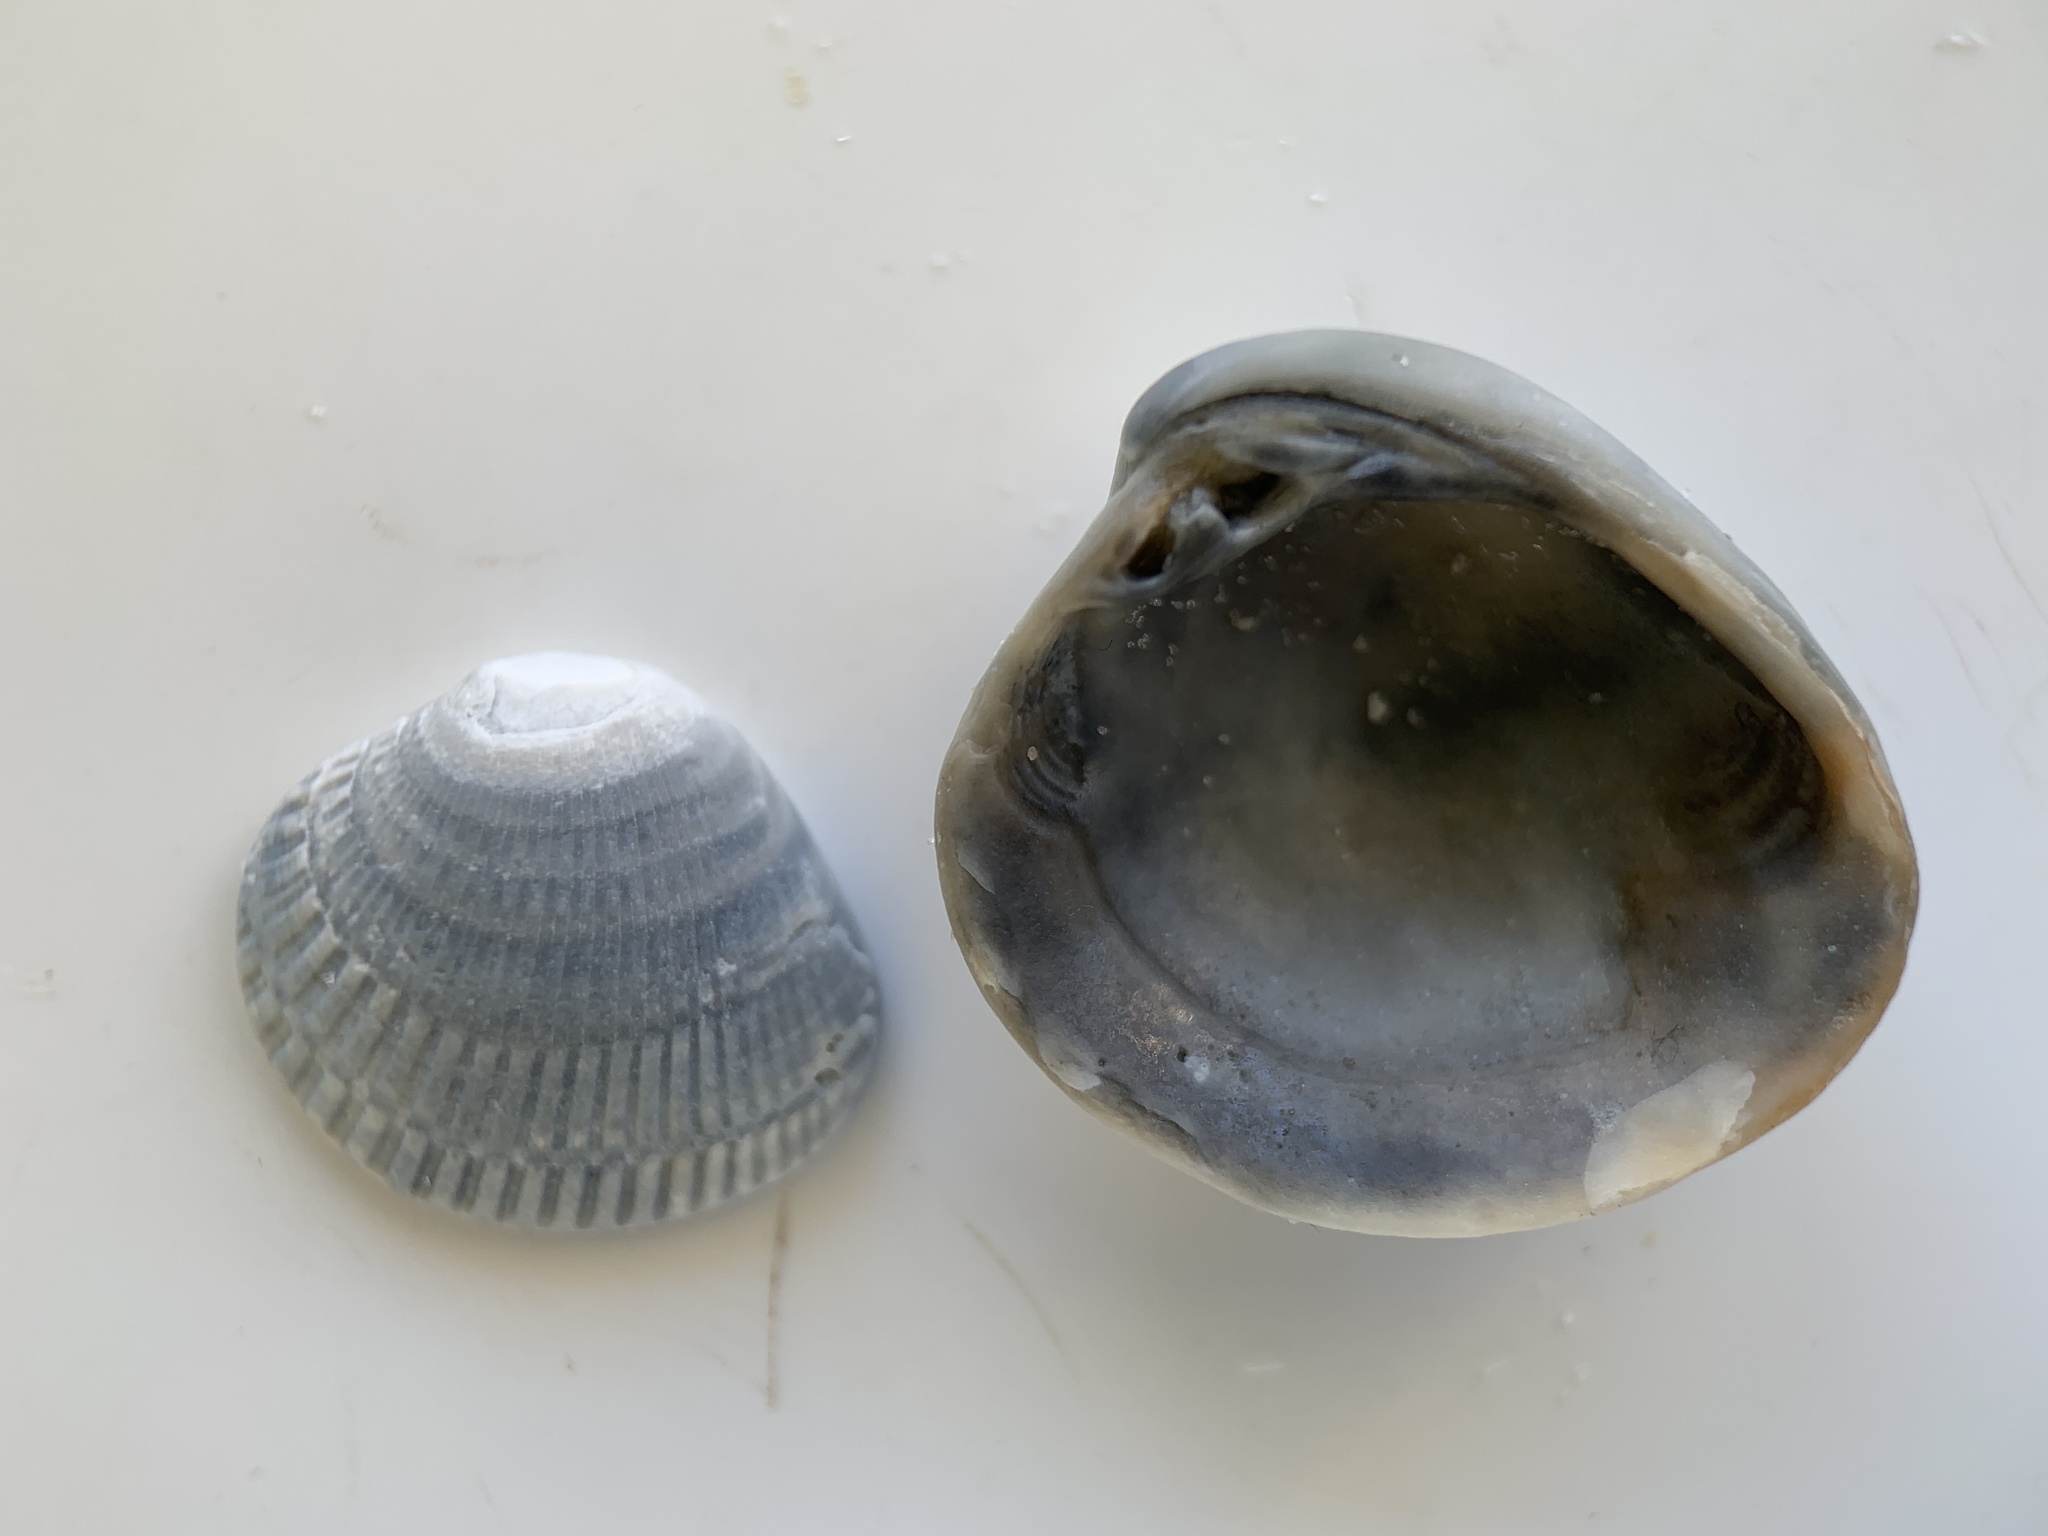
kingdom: Animalia
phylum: Mollusca
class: Bivalvia
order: Venerida
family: Veneridae
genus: Chione
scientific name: Chione elevata
